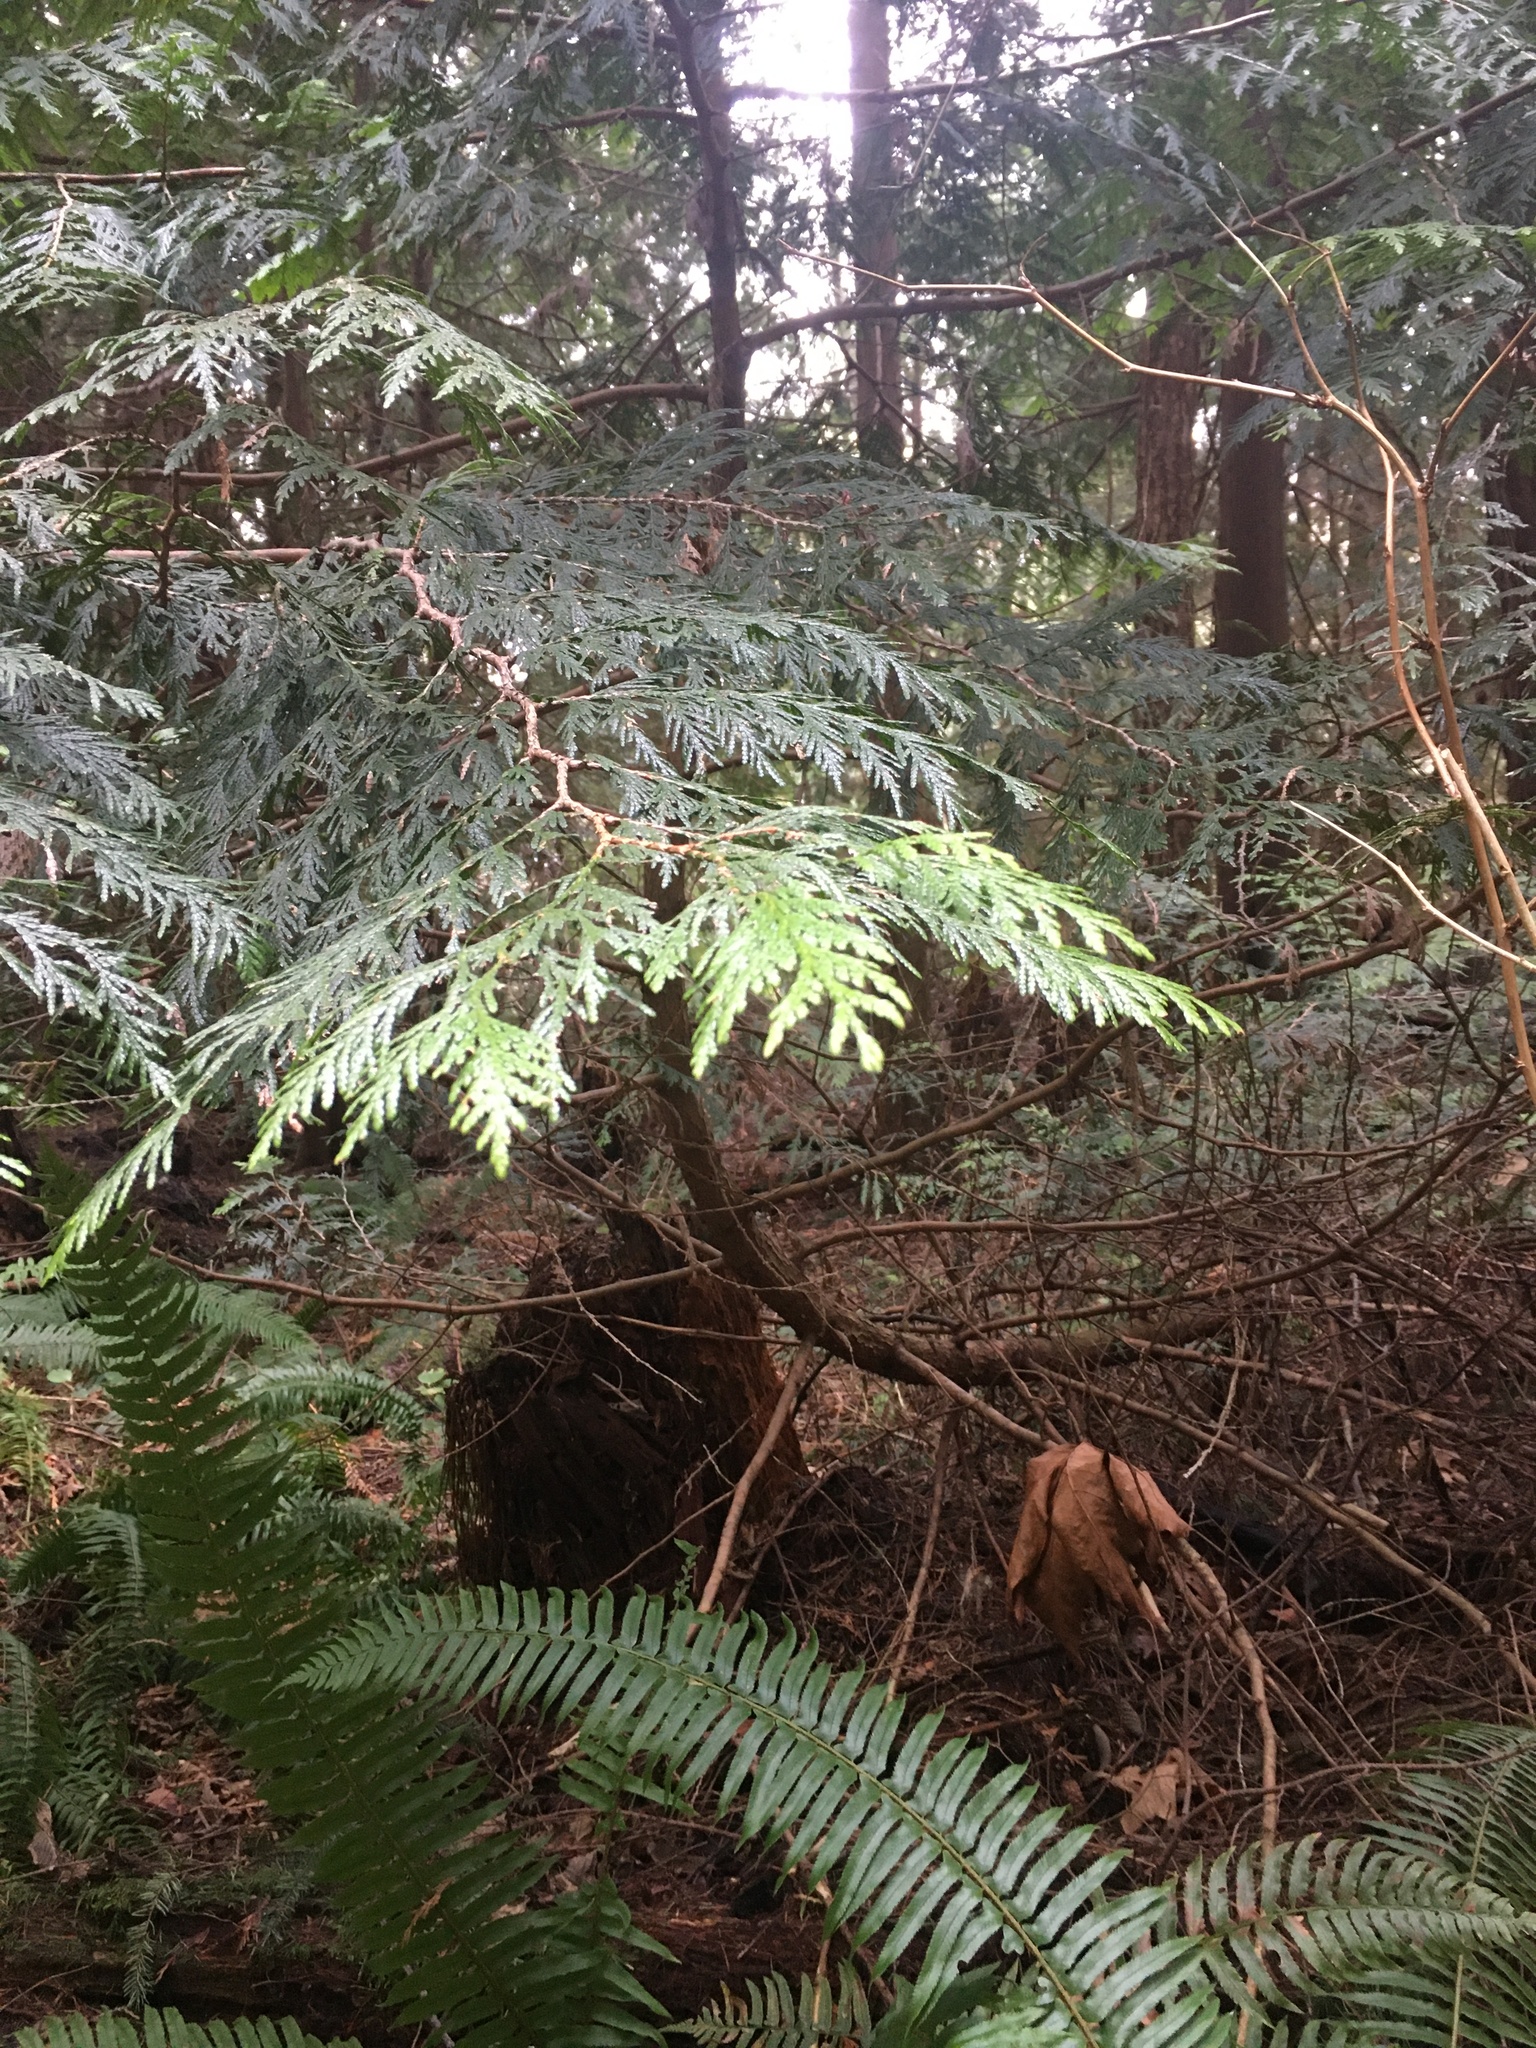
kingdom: Plantae
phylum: Tracheophyta
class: Pinopsida
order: Pinales
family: Cupressaceae
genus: Thuja
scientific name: Thuja plicata
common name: Western red-cedar
